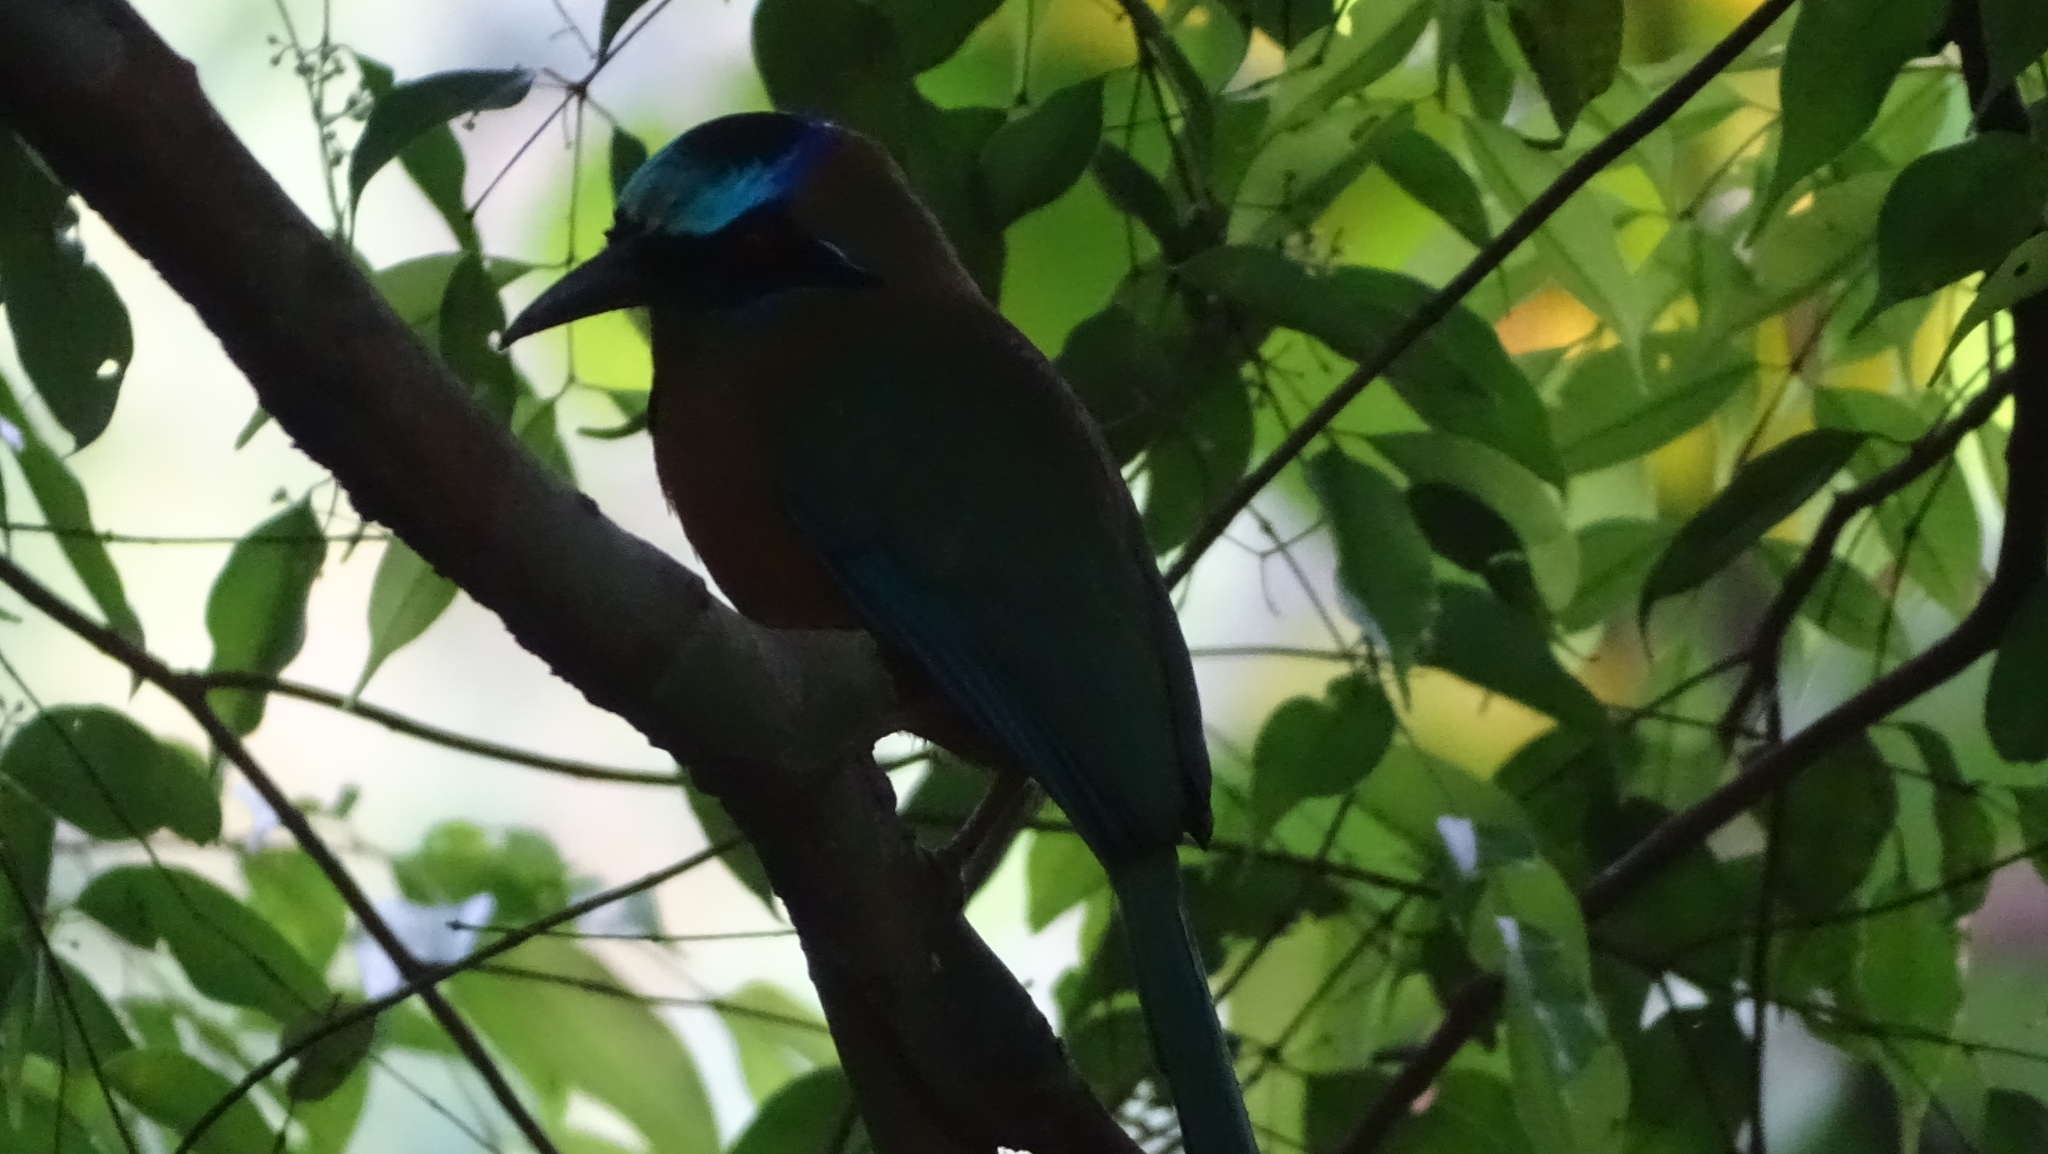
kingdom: Animalia
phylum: Chordata
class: Aves
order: Coraciiformes
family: Momotidae
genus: Momotus
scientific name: Momotus subrufescens
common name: Whooping motmot
